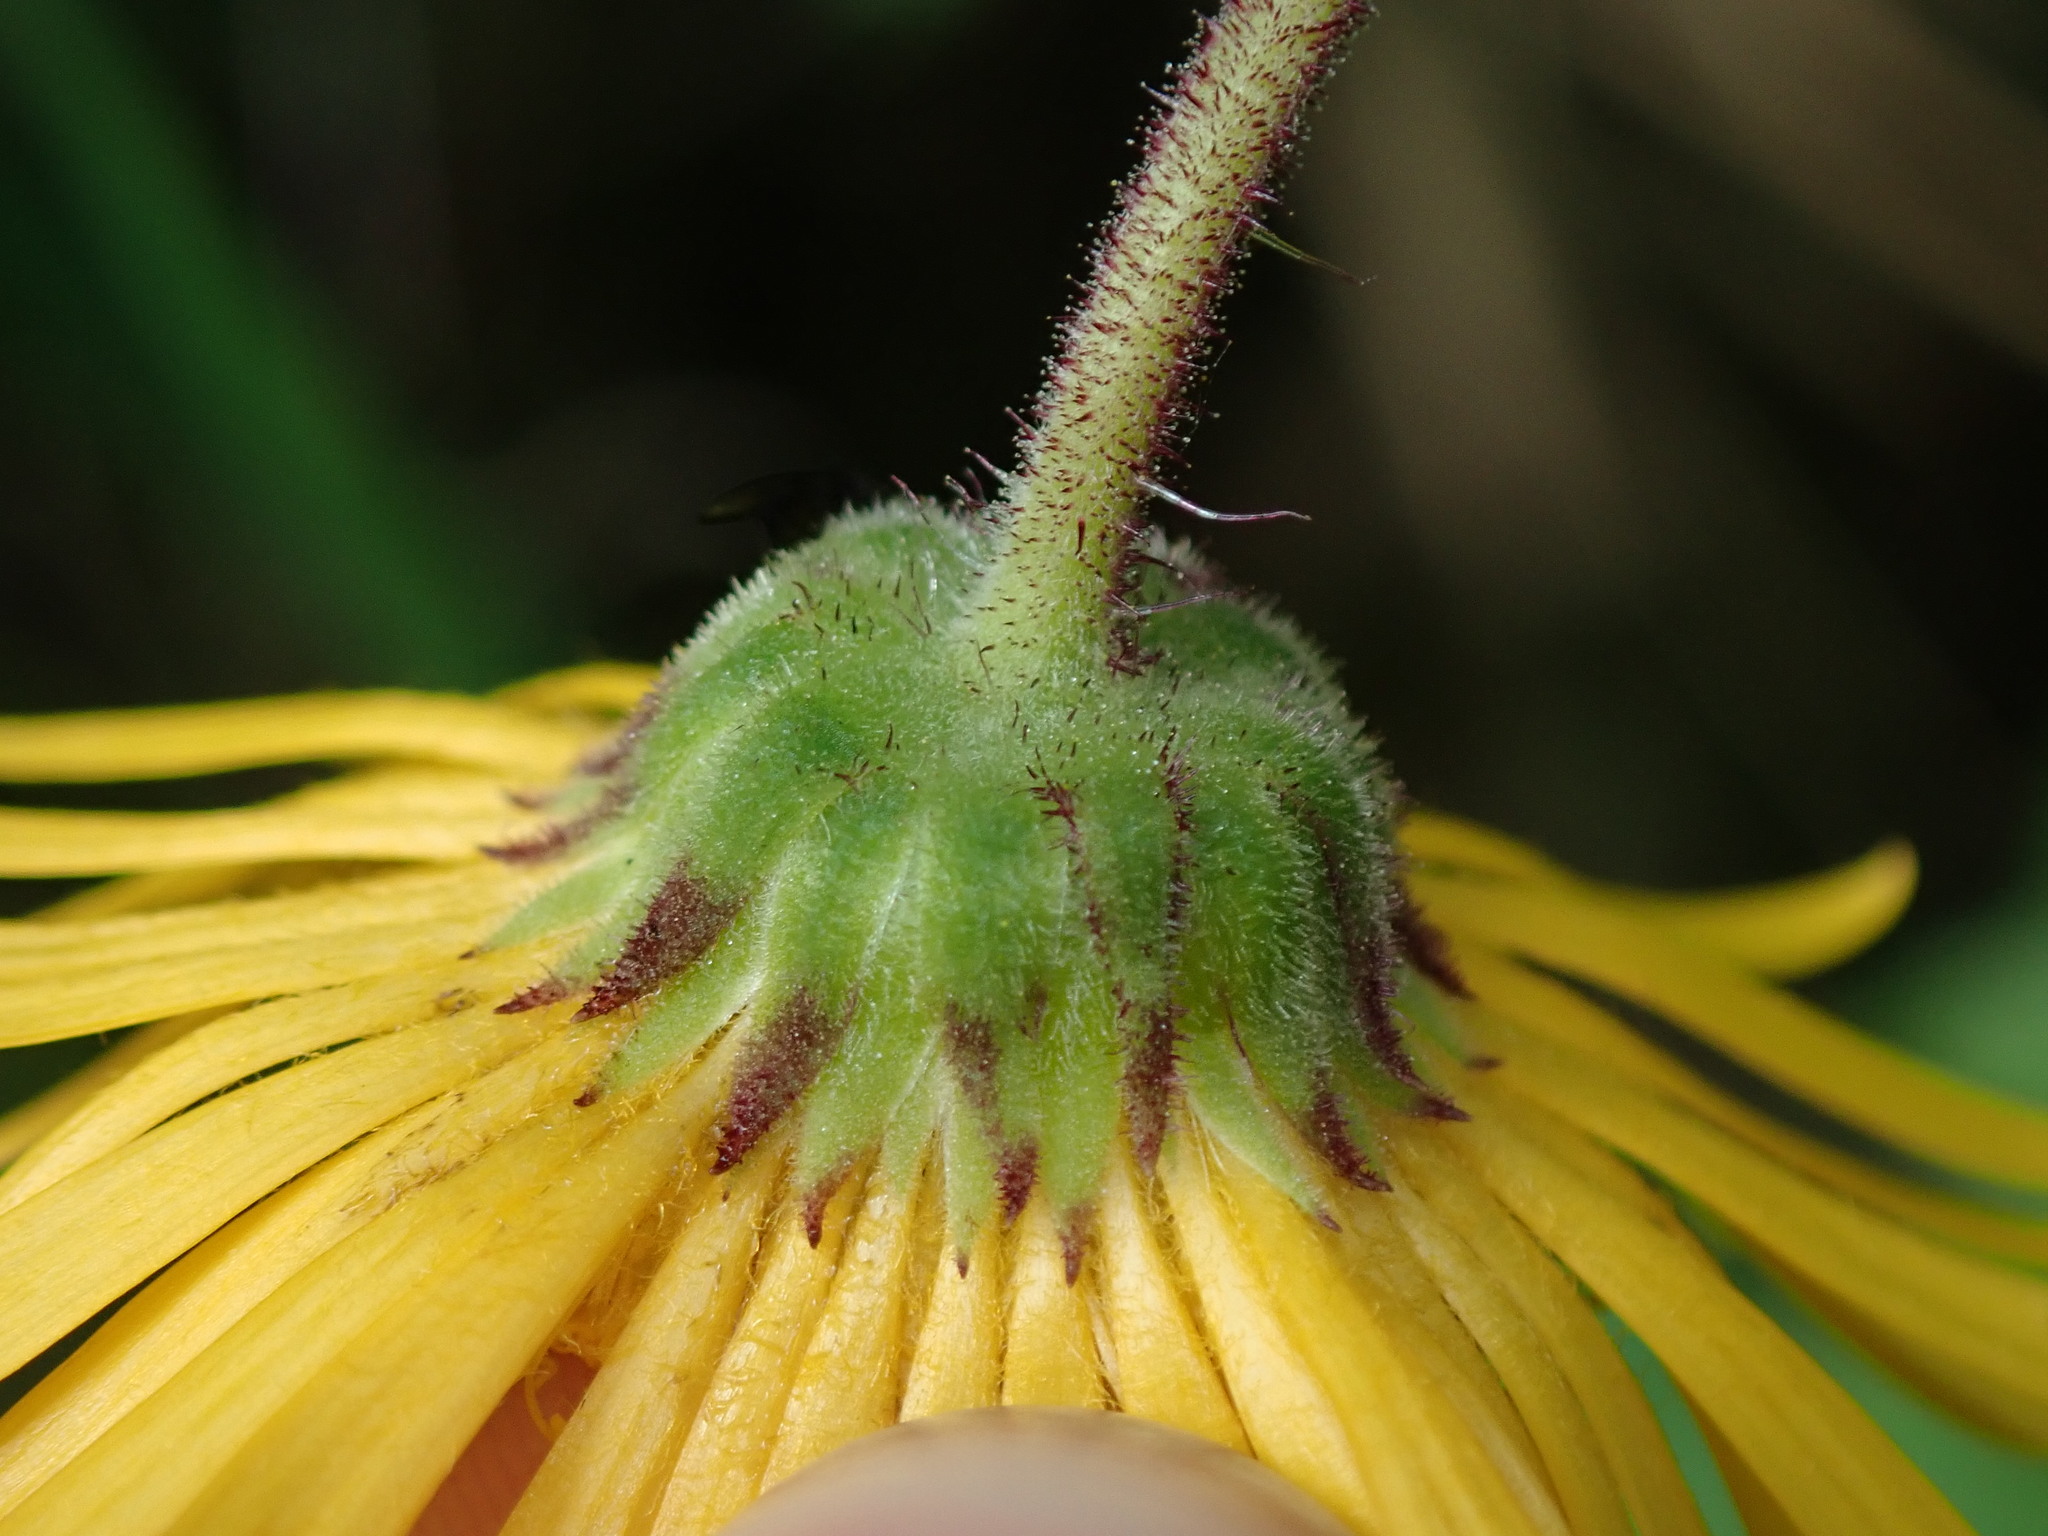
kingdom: Plantae
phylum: Tracheophyta
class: Magnoliopsida
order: Asterales
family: Asteraceae
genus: Munnozia
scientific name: Munnozia pinnatipartita
